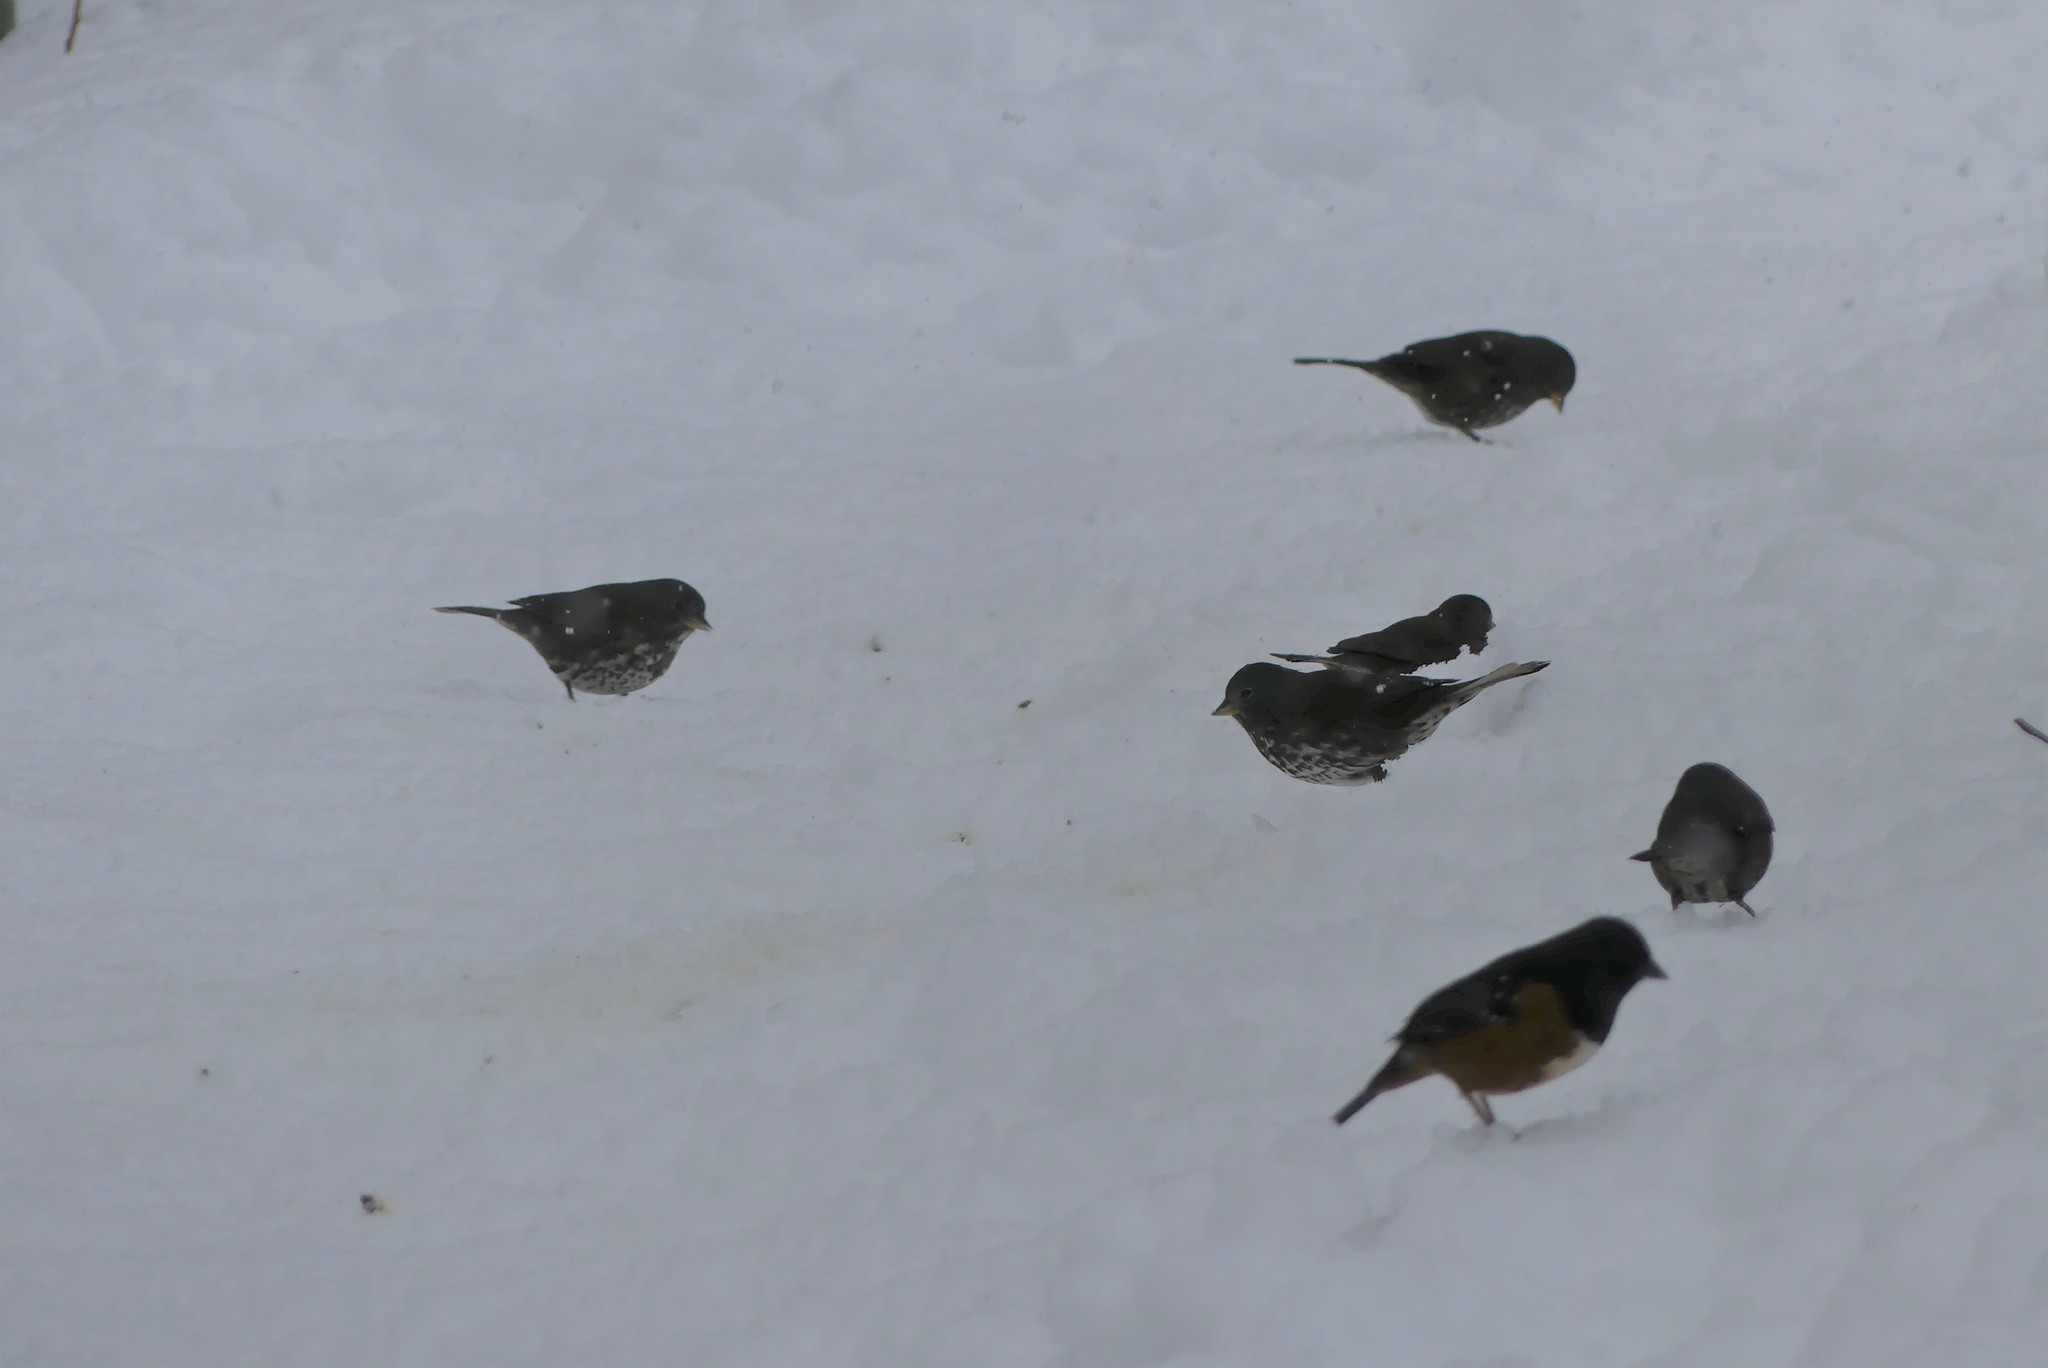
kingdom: Animalia
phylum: Chordata
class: Aves
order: Passeriformes
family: Passerellidae
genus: Passerella
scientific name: Passerella iliaca
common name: Fox sparrow
